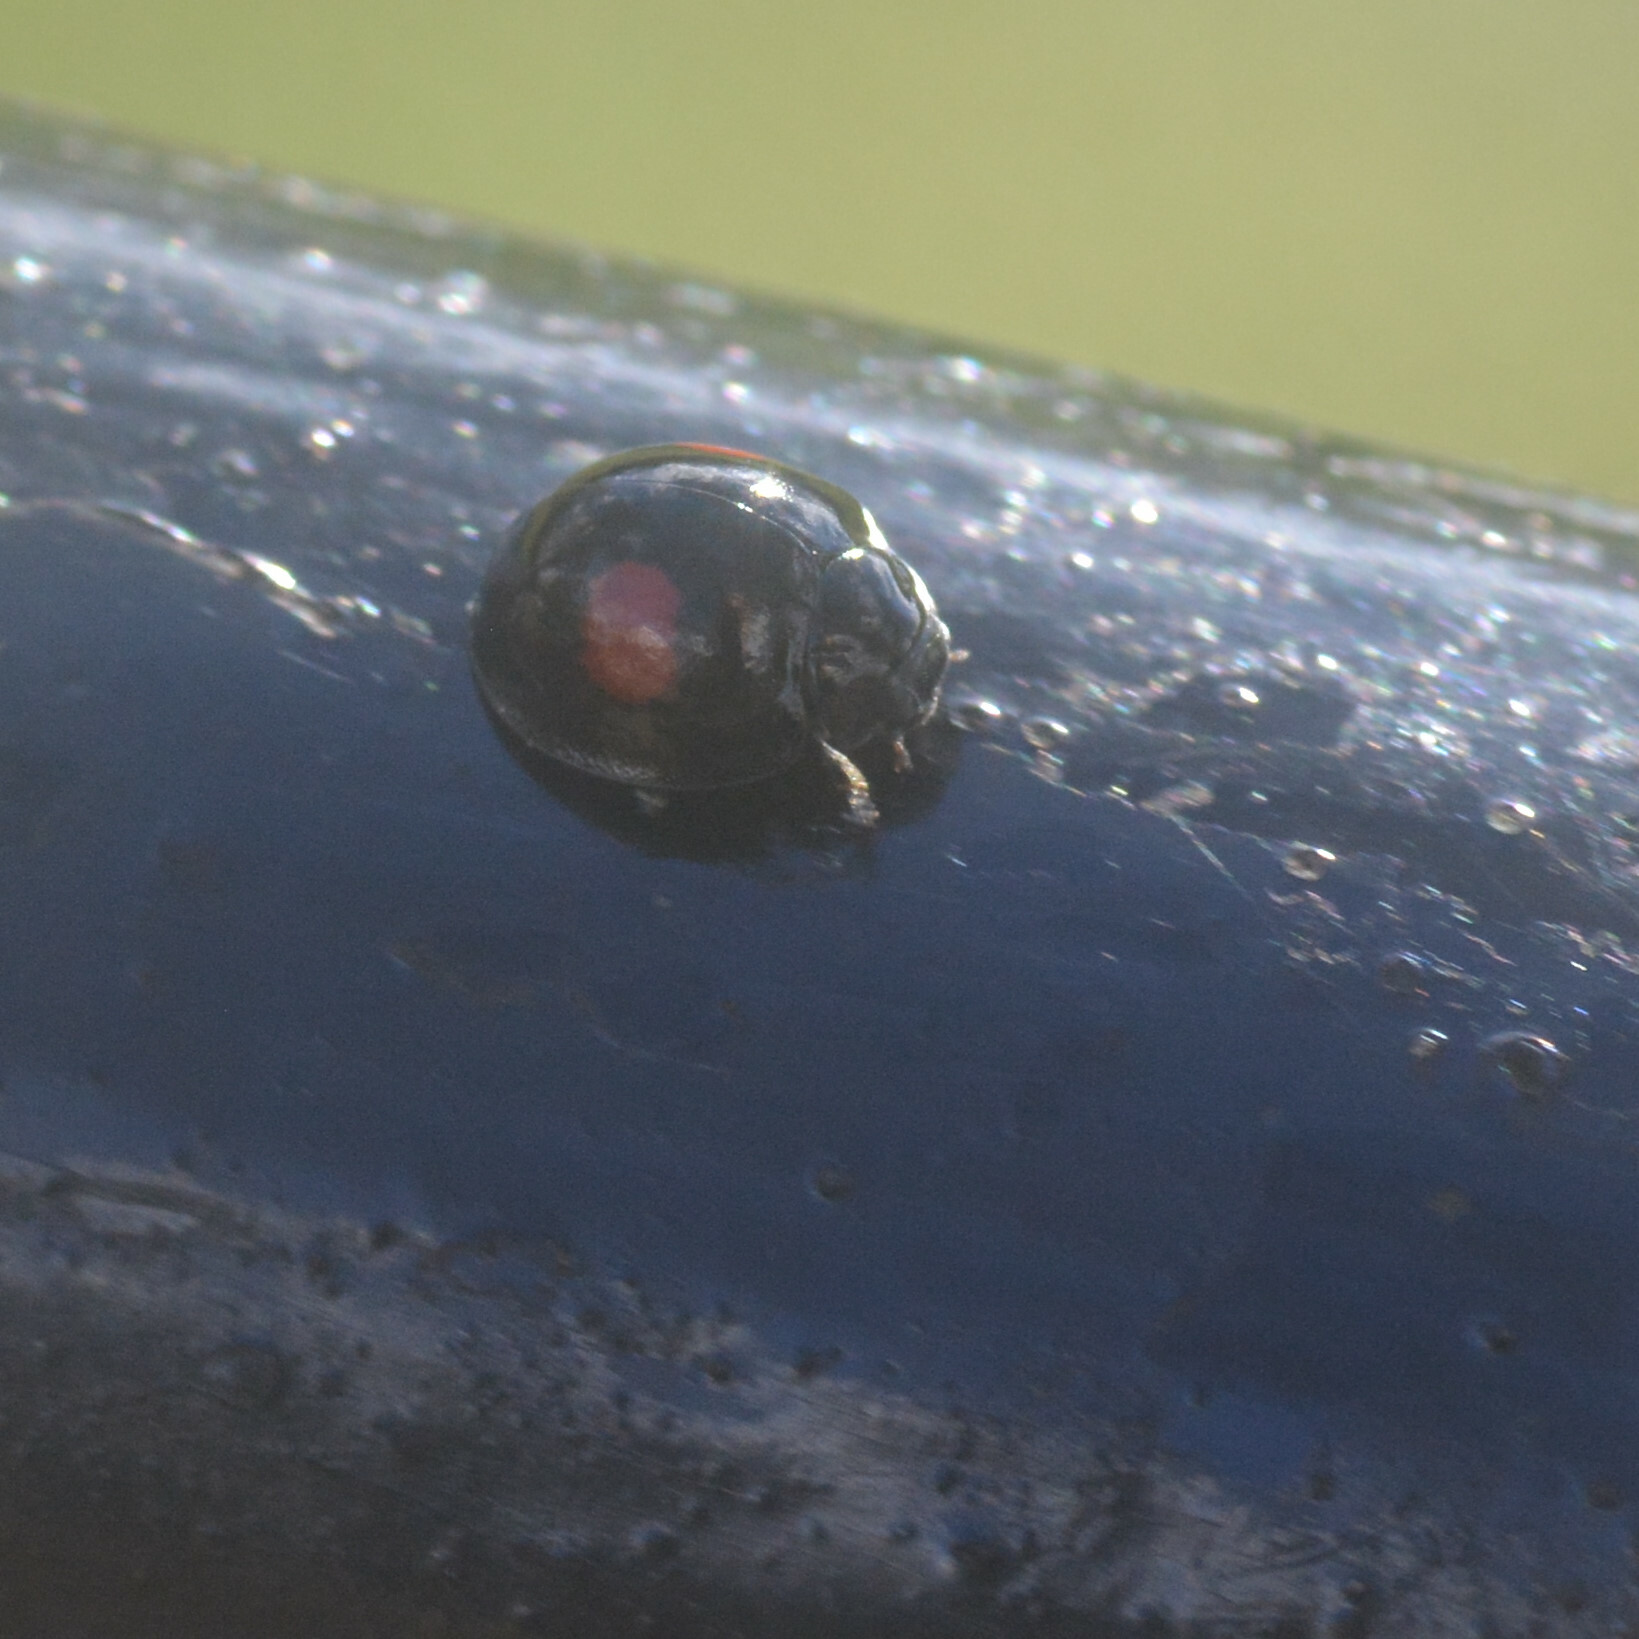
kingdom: Animalia
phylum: Arthropoda
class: Insecta
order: Coleoptera
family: Coccinellidae
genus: Chilocorus
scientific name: Chilocorus renipustulatus
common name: Kidney-spot ladybird
